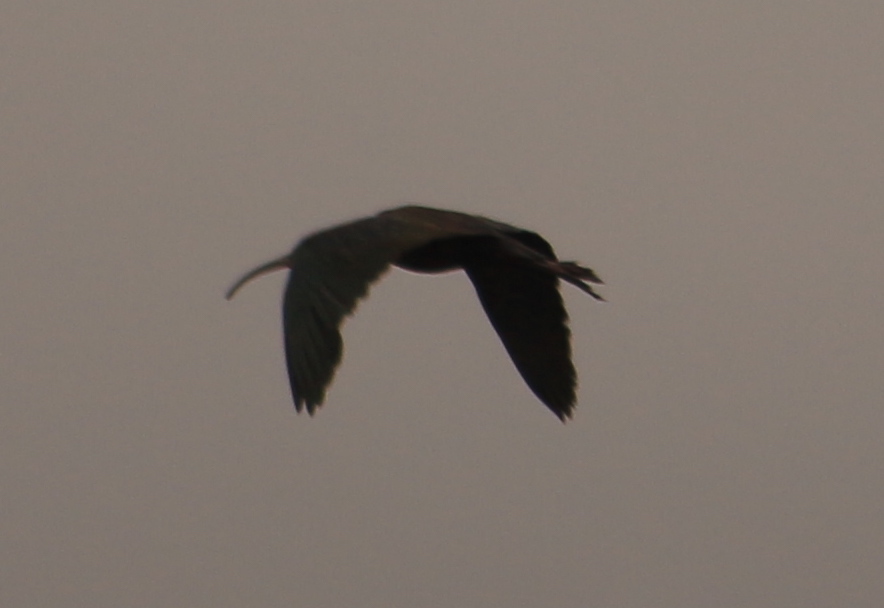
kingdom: Animalia
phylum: Chordata
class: Aves
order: Pelecaniformes
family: Threskiornithidae
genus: Theristicus
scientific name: Theristicus caudatus
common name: Buff-necked ibis
